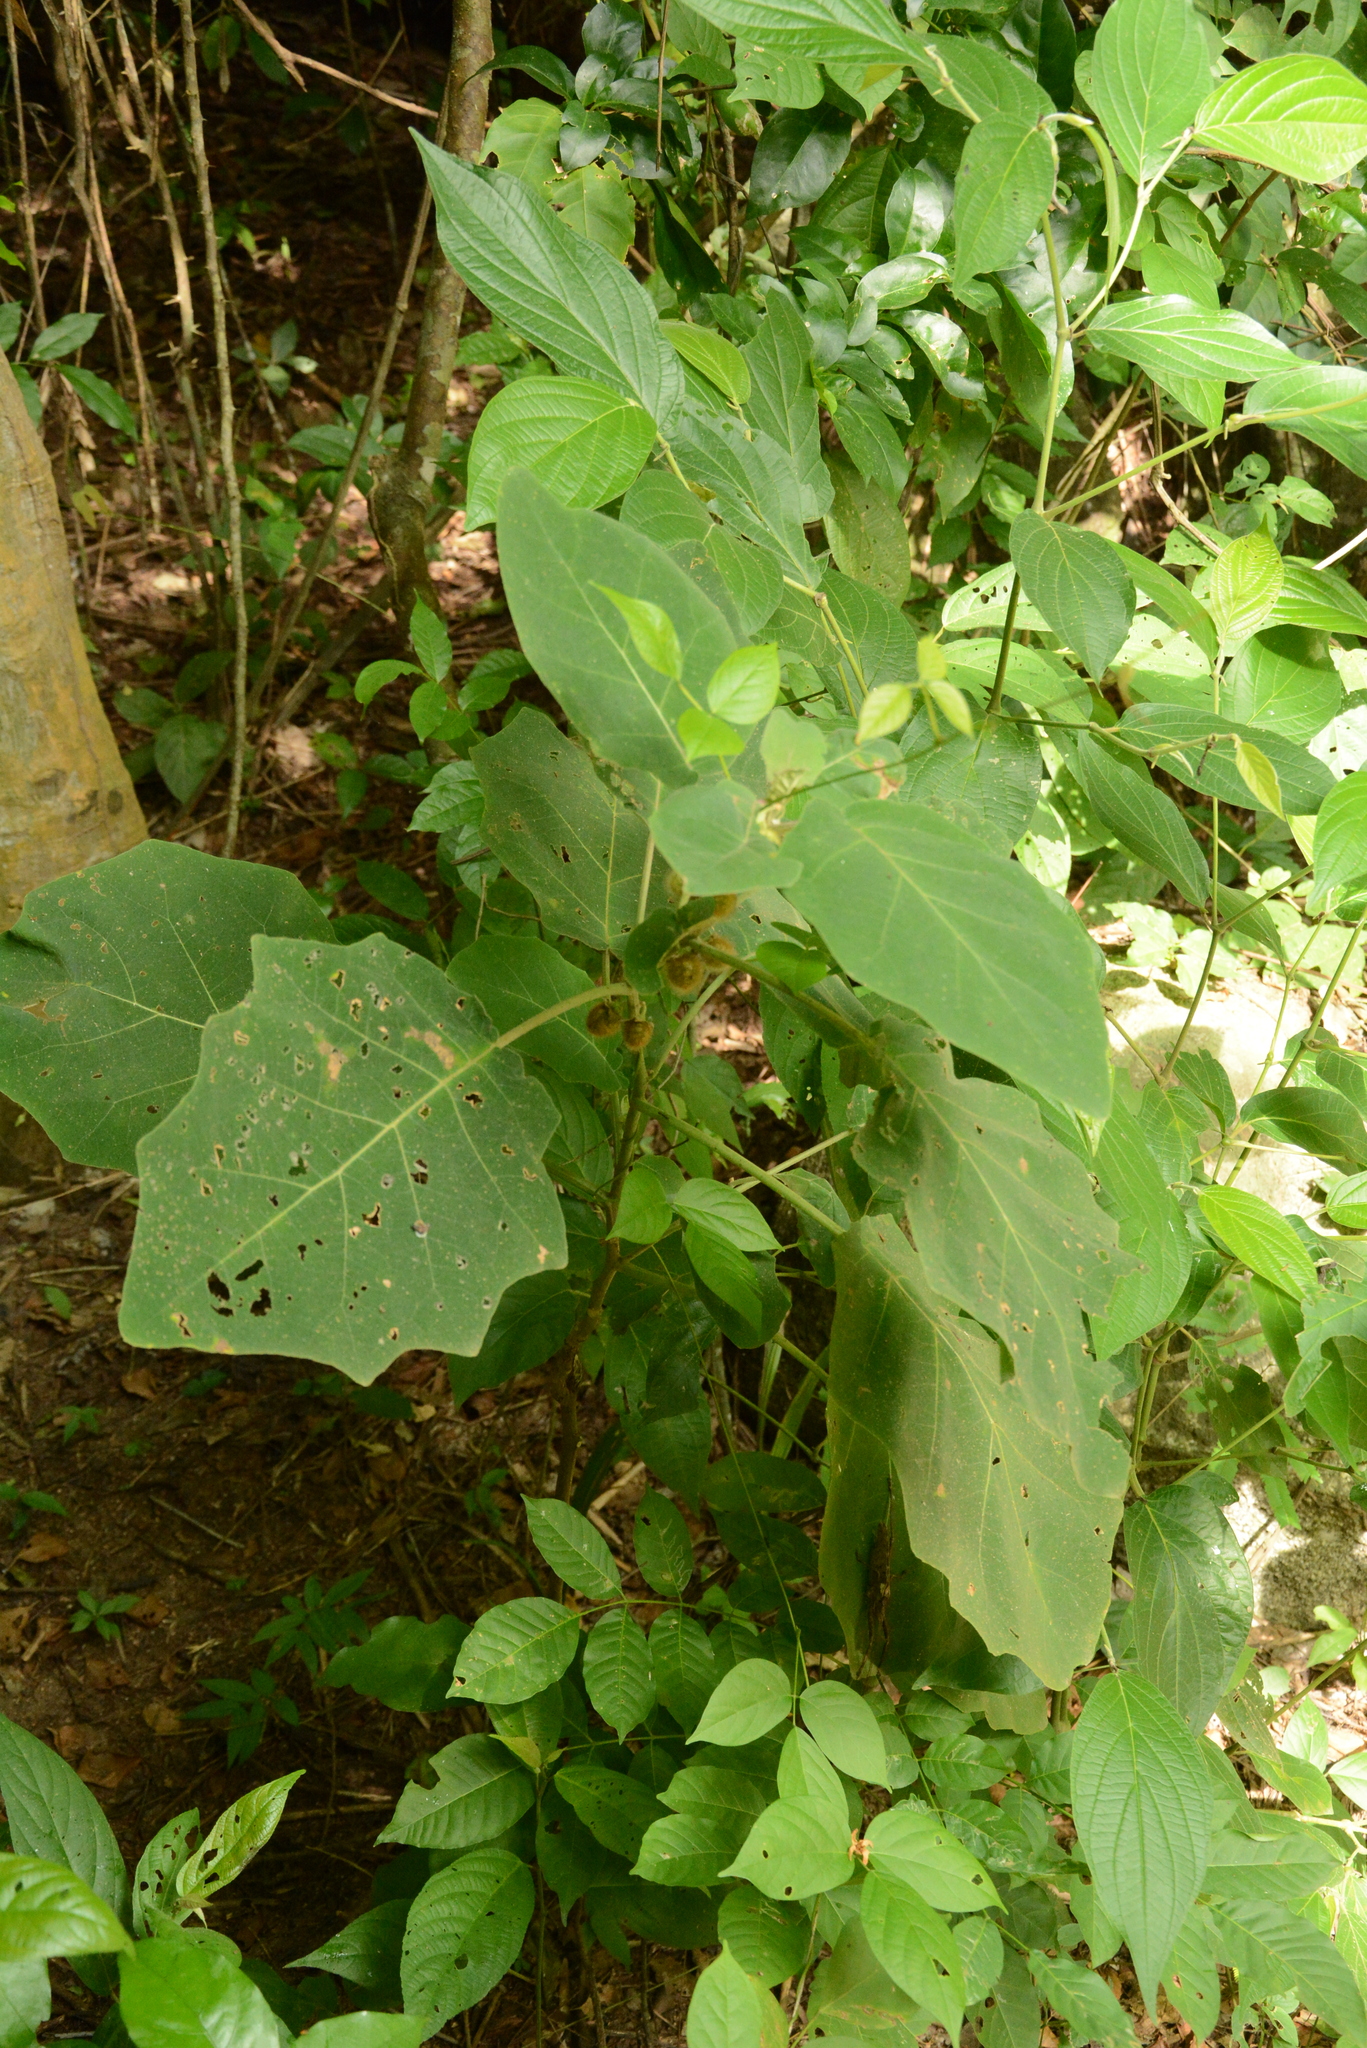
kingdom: Plantae
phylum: Tracheophyta
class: Magnoliopsida
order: Solanales
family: Solanaceae
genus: Solanum
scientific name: Solanum hirtum
